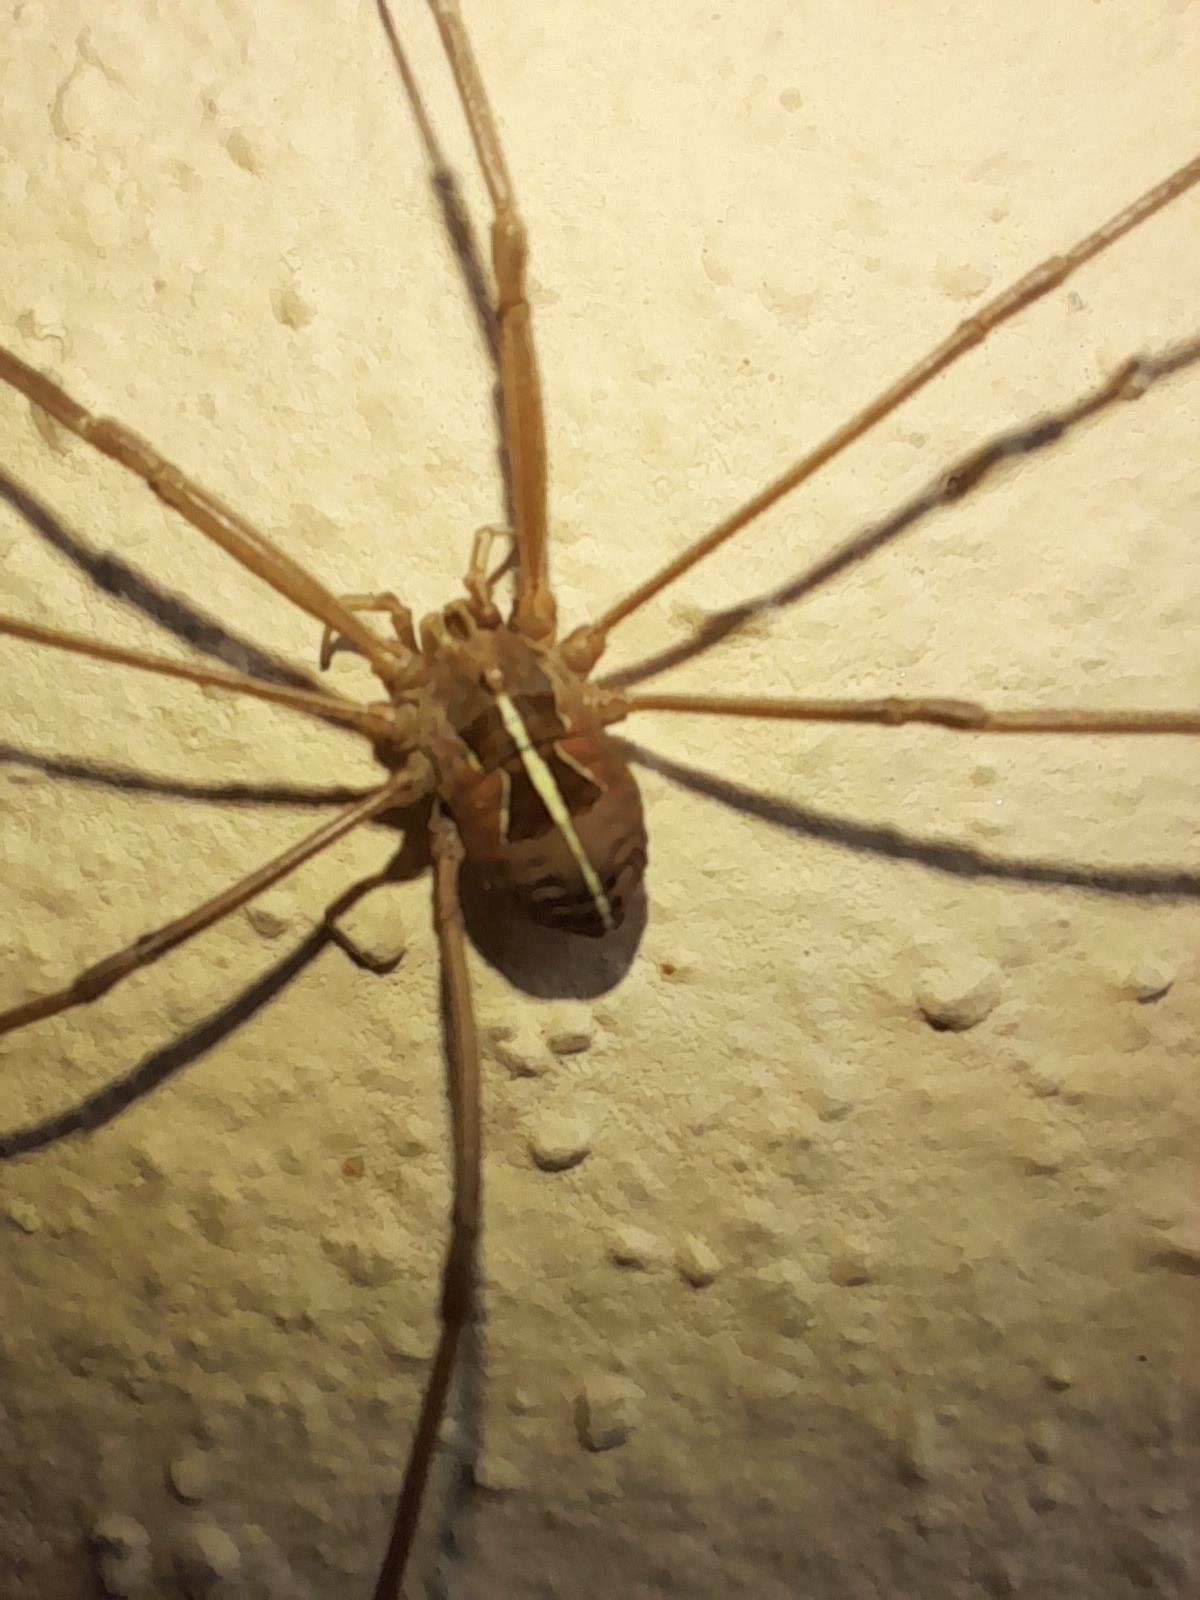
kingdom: Animalia
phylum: Arthropoda
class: Arachnida
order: Opiliones
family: Phalangiidae
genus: Metaphalangium
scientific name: Metaphalangium cirtanum
